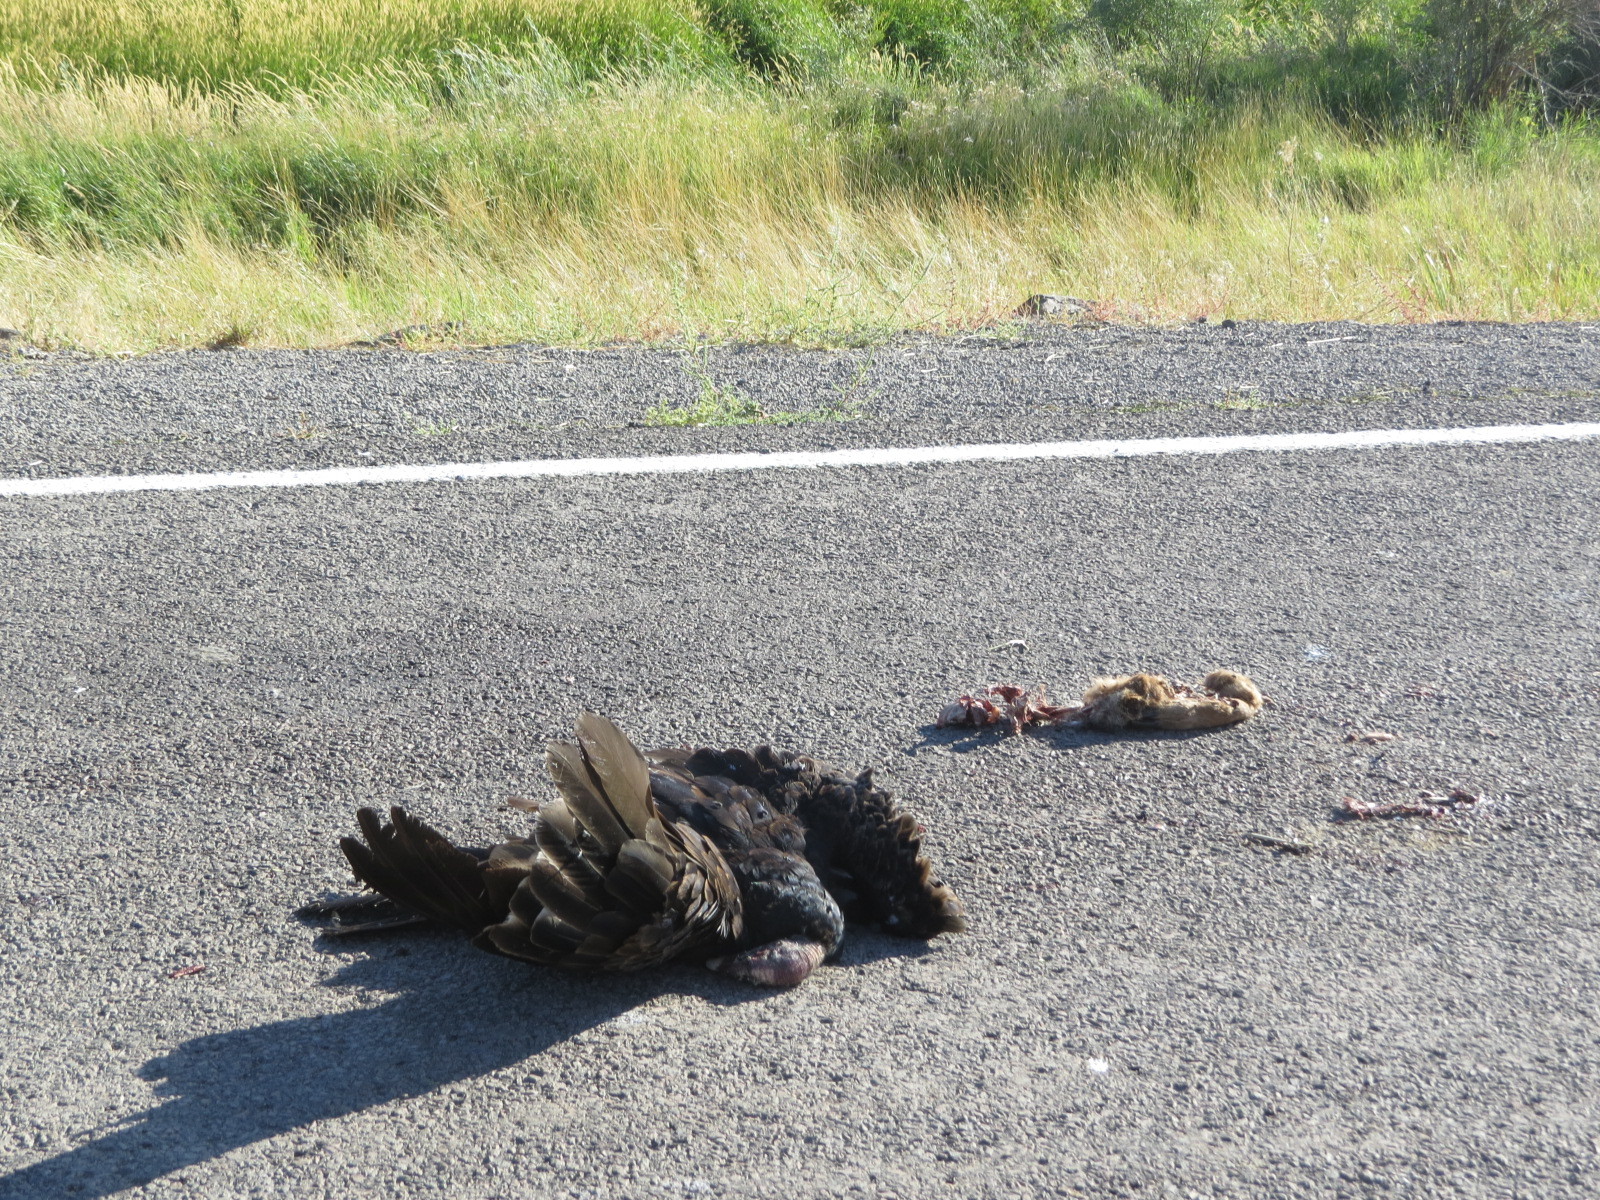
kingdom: Animalia
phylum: Chordata
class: Aves
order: Accipitriformes
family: Cathartidae
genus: Cathartes
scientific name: Cathartes aura
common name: Turkey vulture
